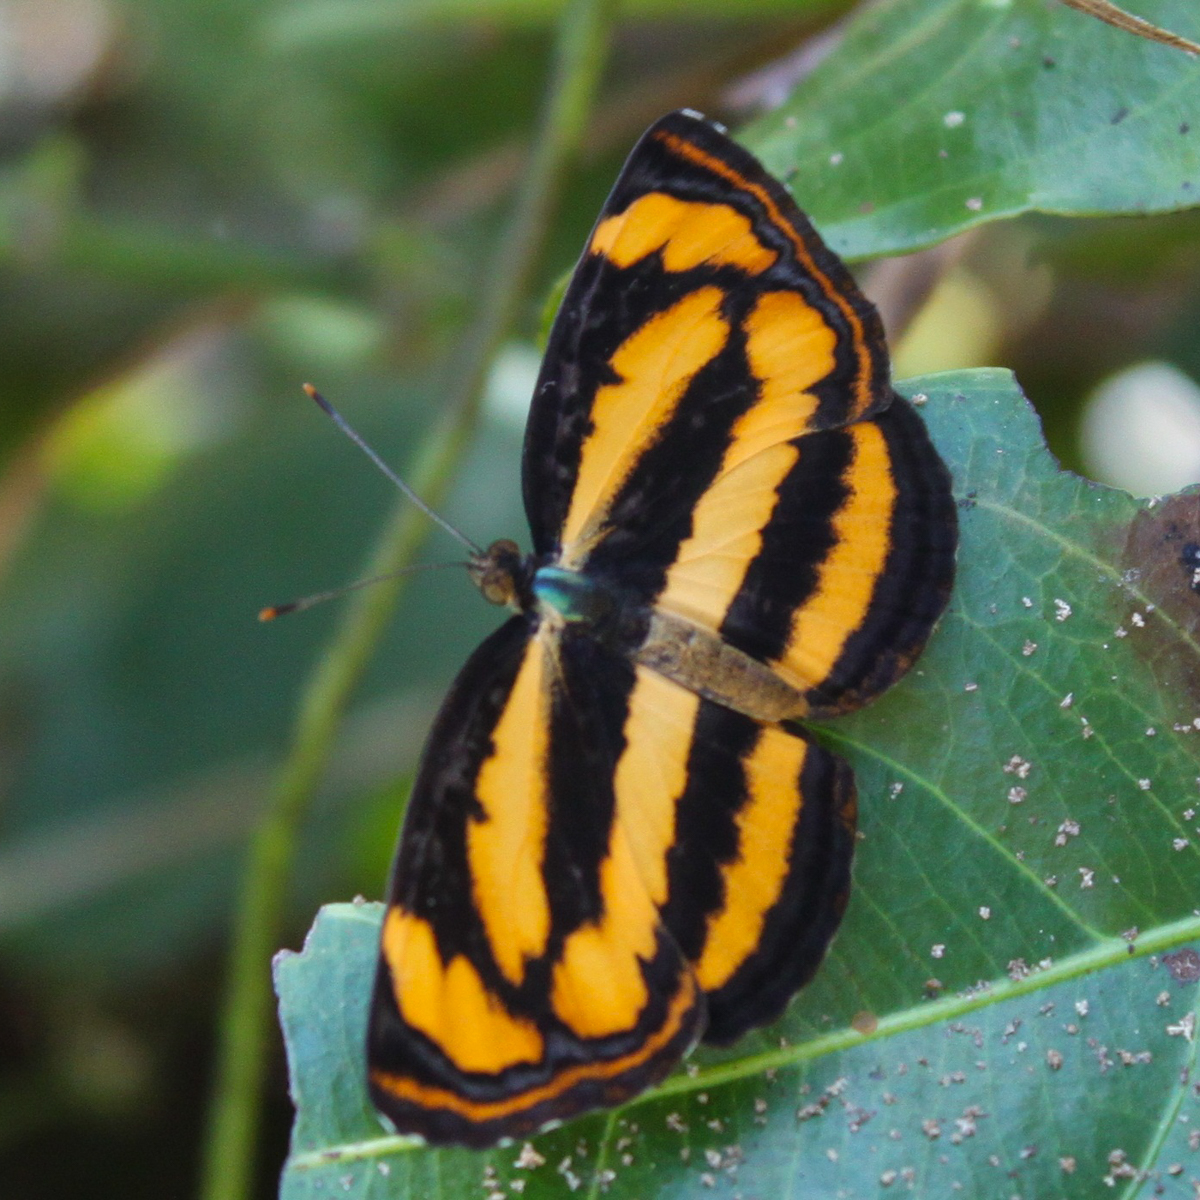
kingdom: Animalia
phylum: Arthropoda
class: Insecta
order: Lepidoptera
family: Nymphalidae
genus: Pantoporia
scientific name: Pantoporia hordonia
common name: Common lascar
